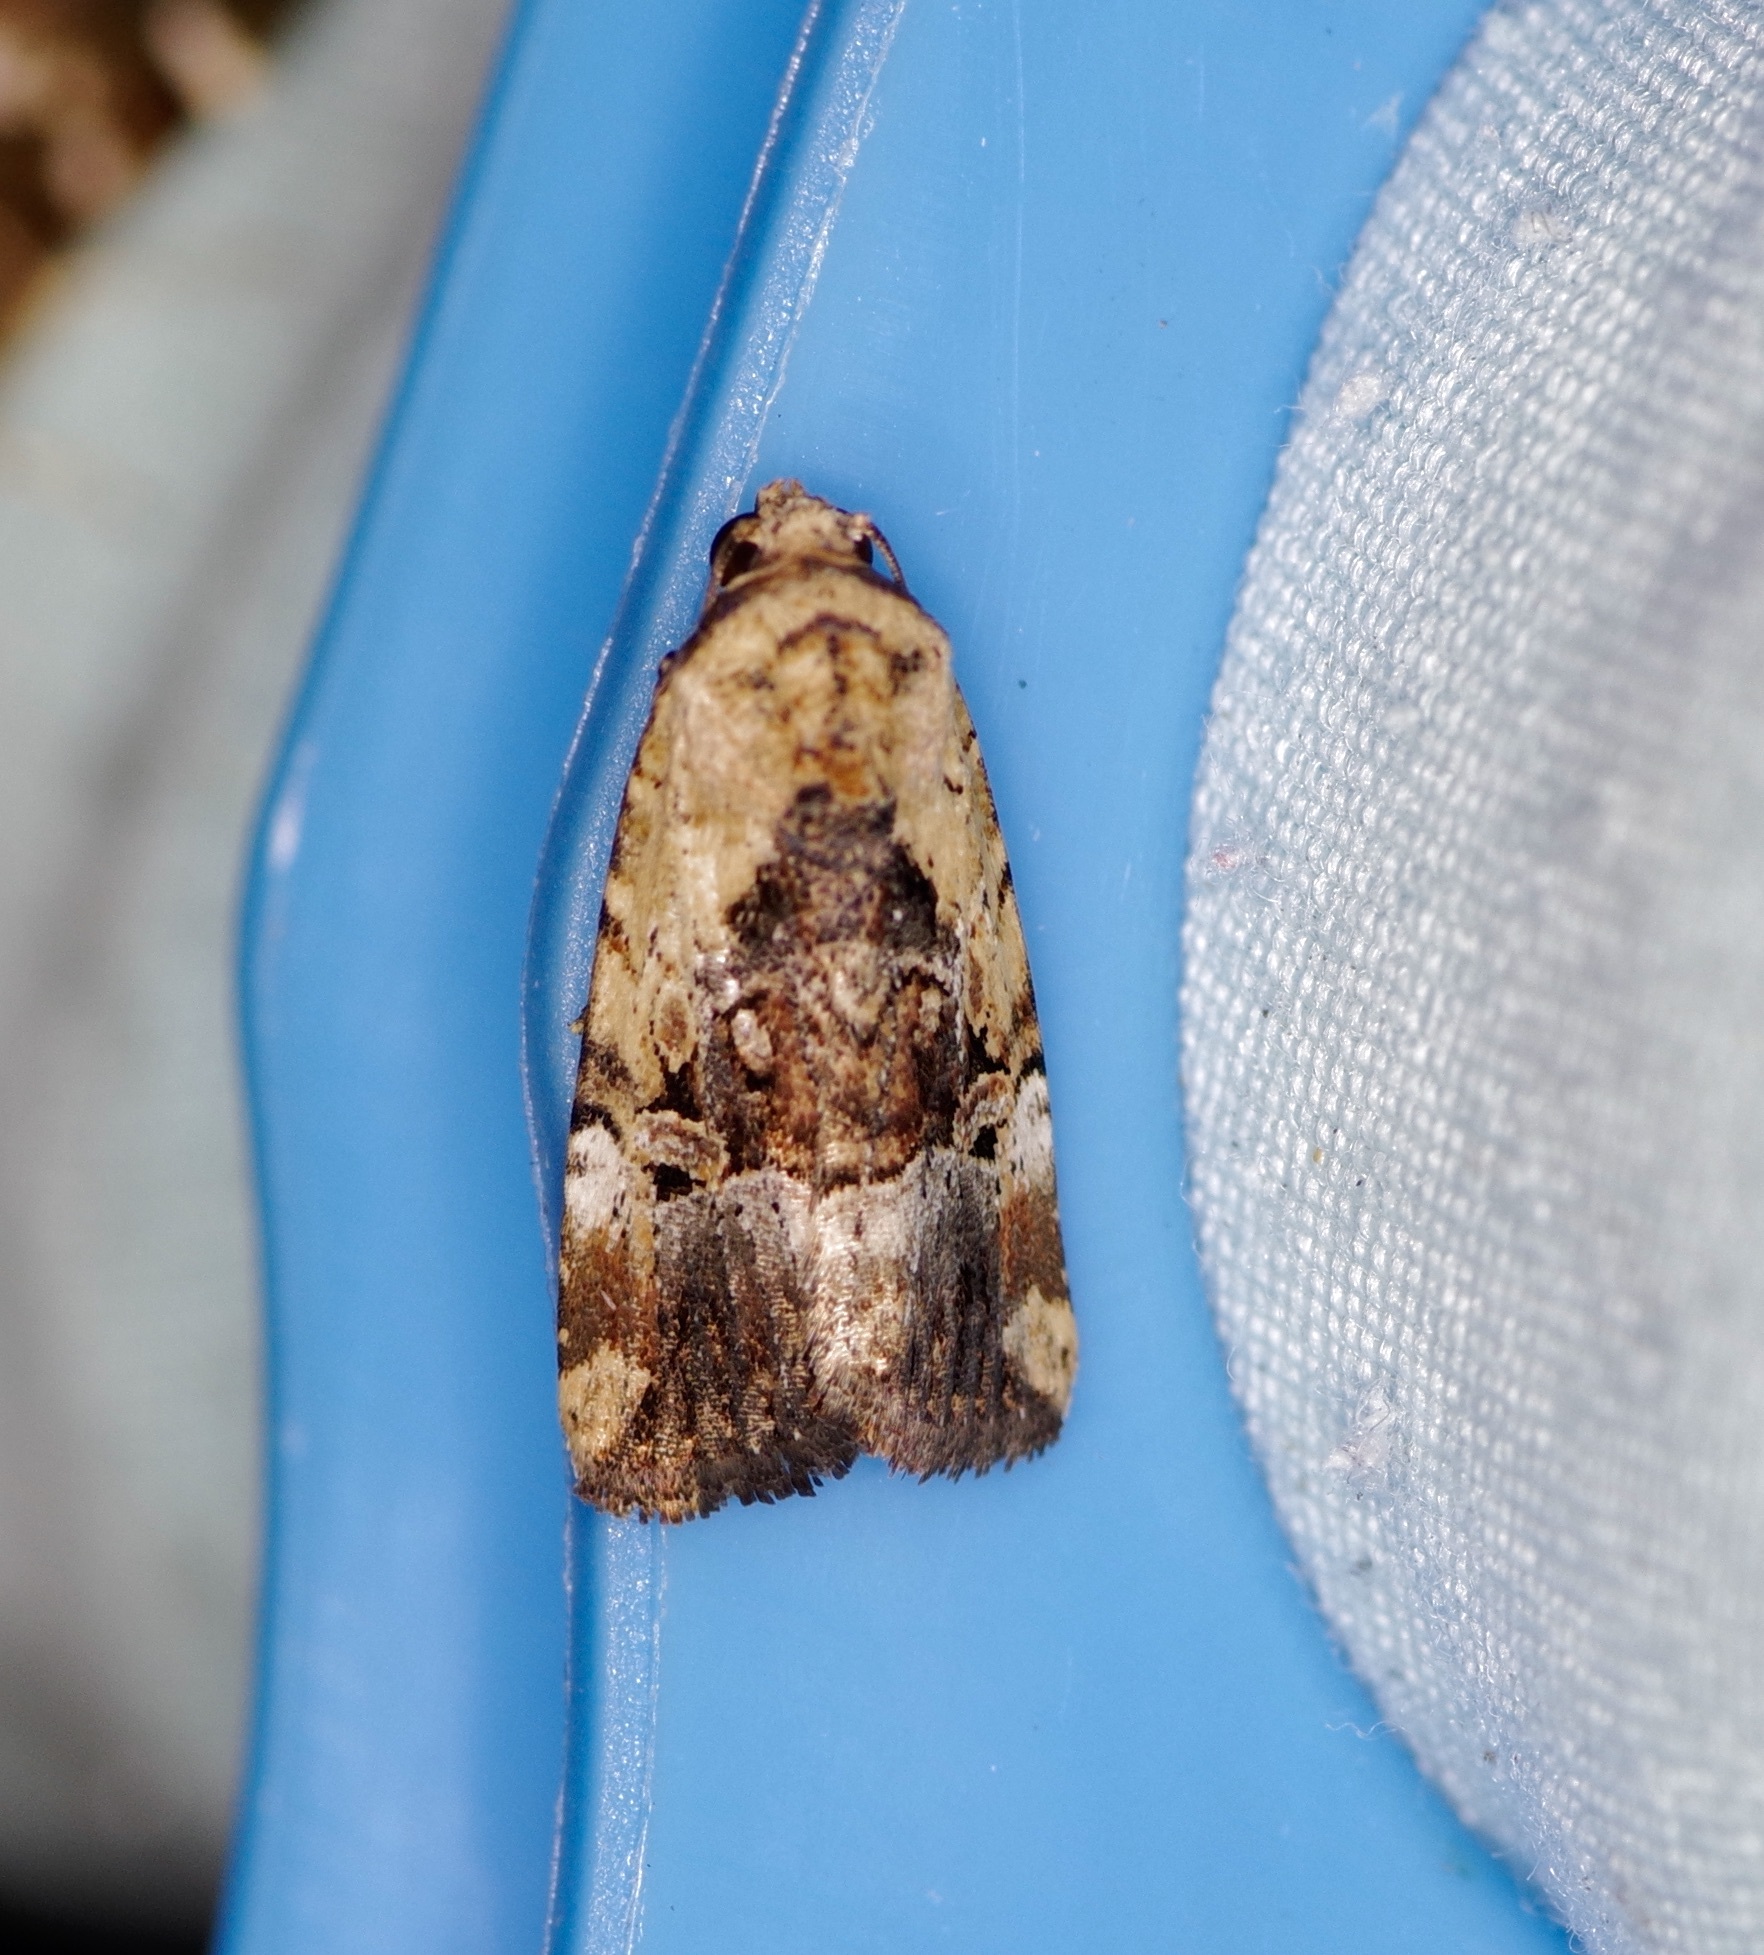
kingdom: Animalia
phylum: Arthropoda
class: Insecta
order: Lepidoptera
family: Noctuidae
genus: Elaphria
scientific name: Elaphria chalcedonia
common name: Chalcedony midget
